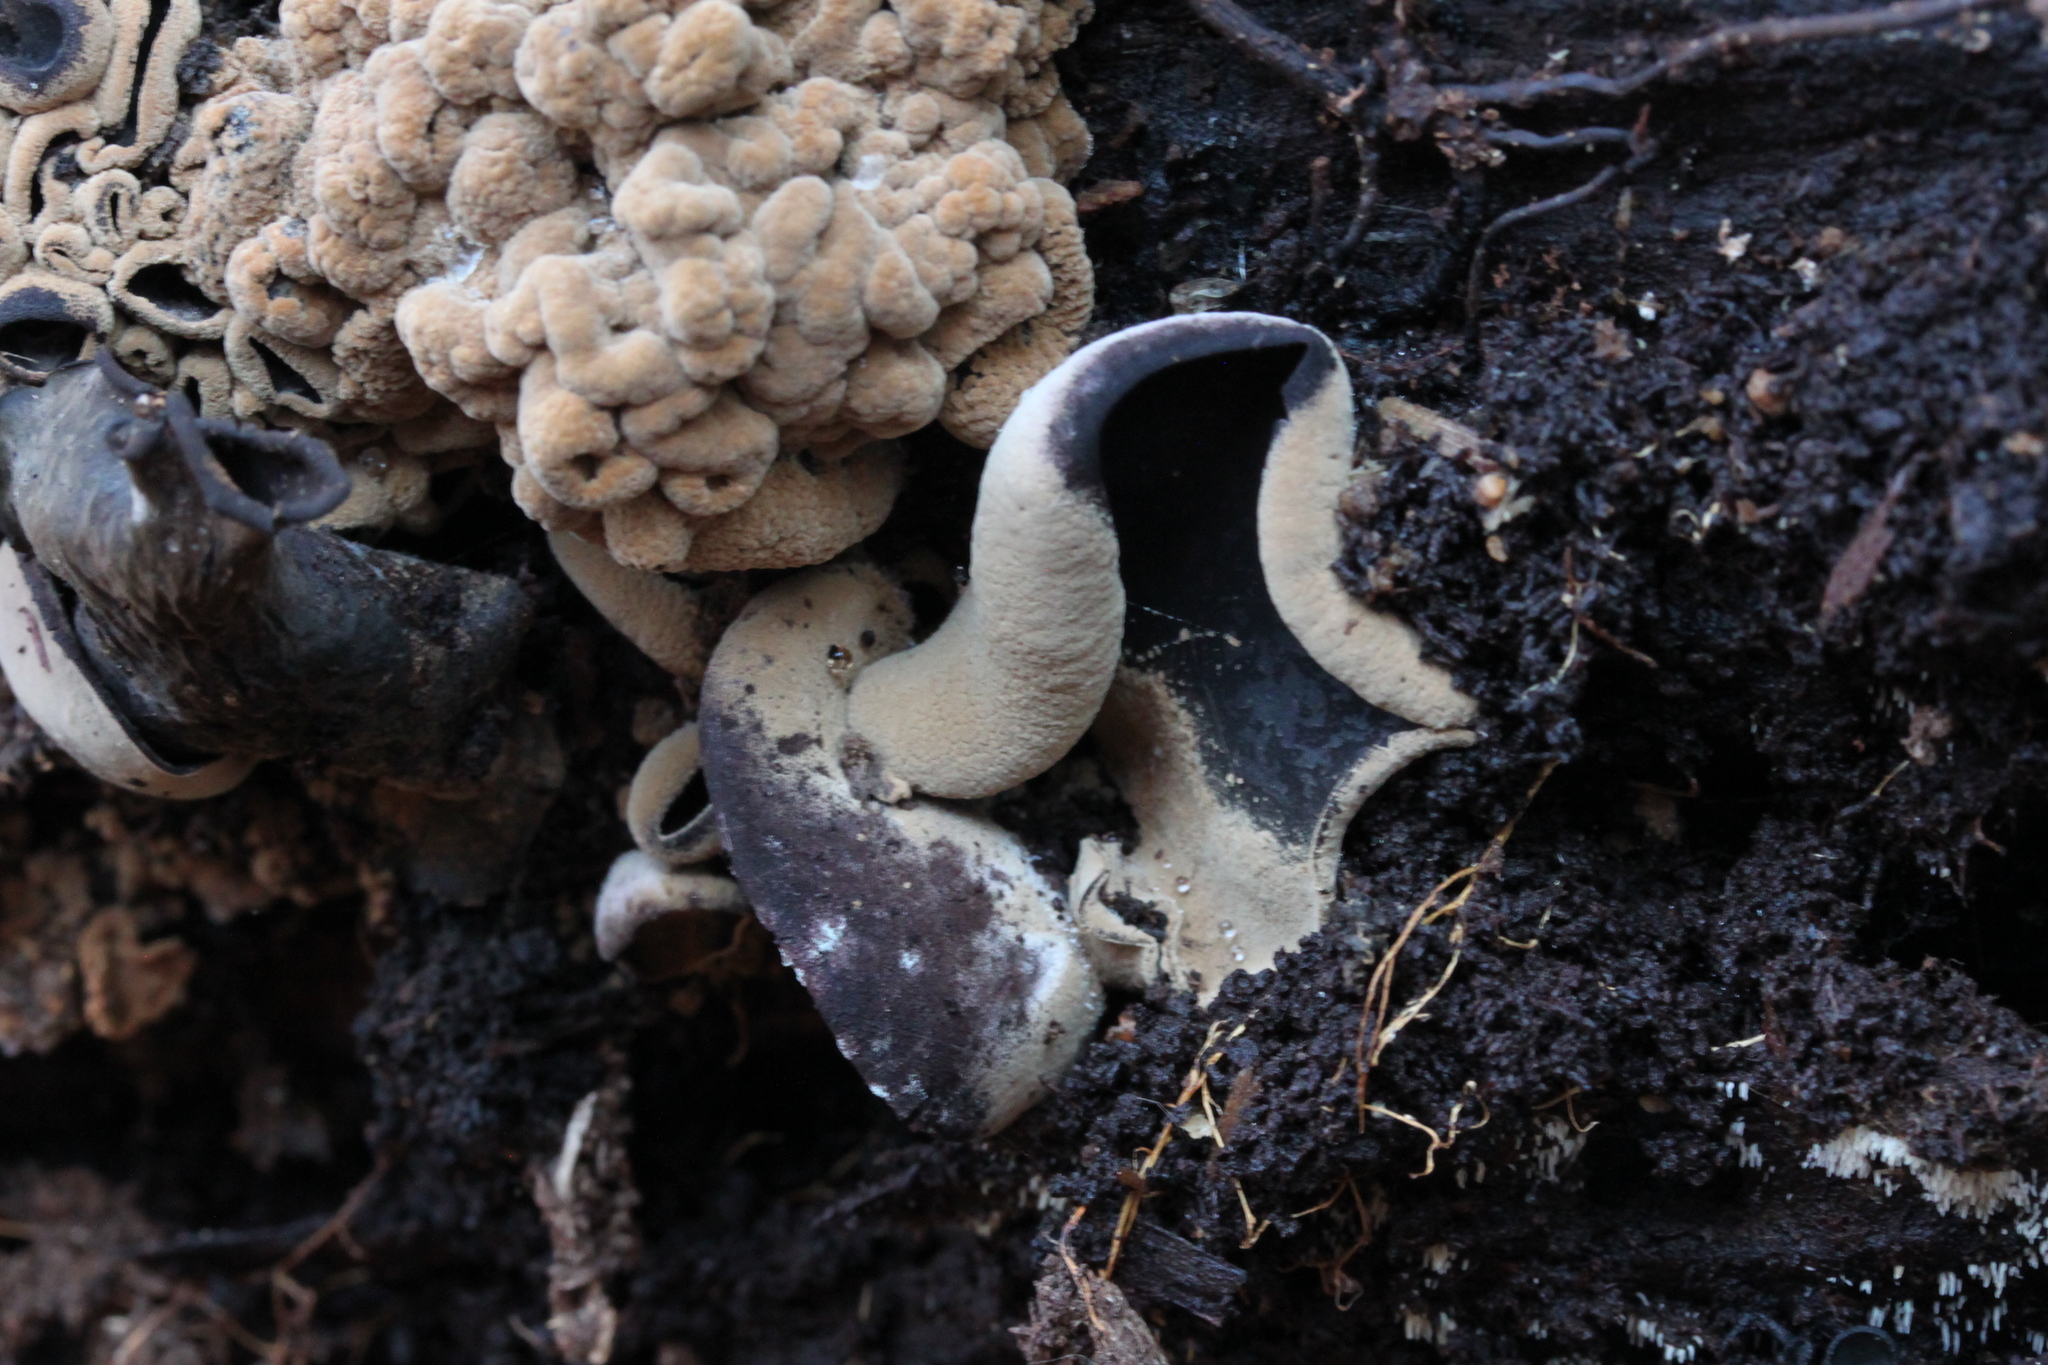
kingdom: Fungi
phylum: Ascomycota
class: Leotiomycetes
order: Helotiales
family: Cordieritidaceae
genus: Diplocarpa
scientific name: Diplocarpa irregularis
